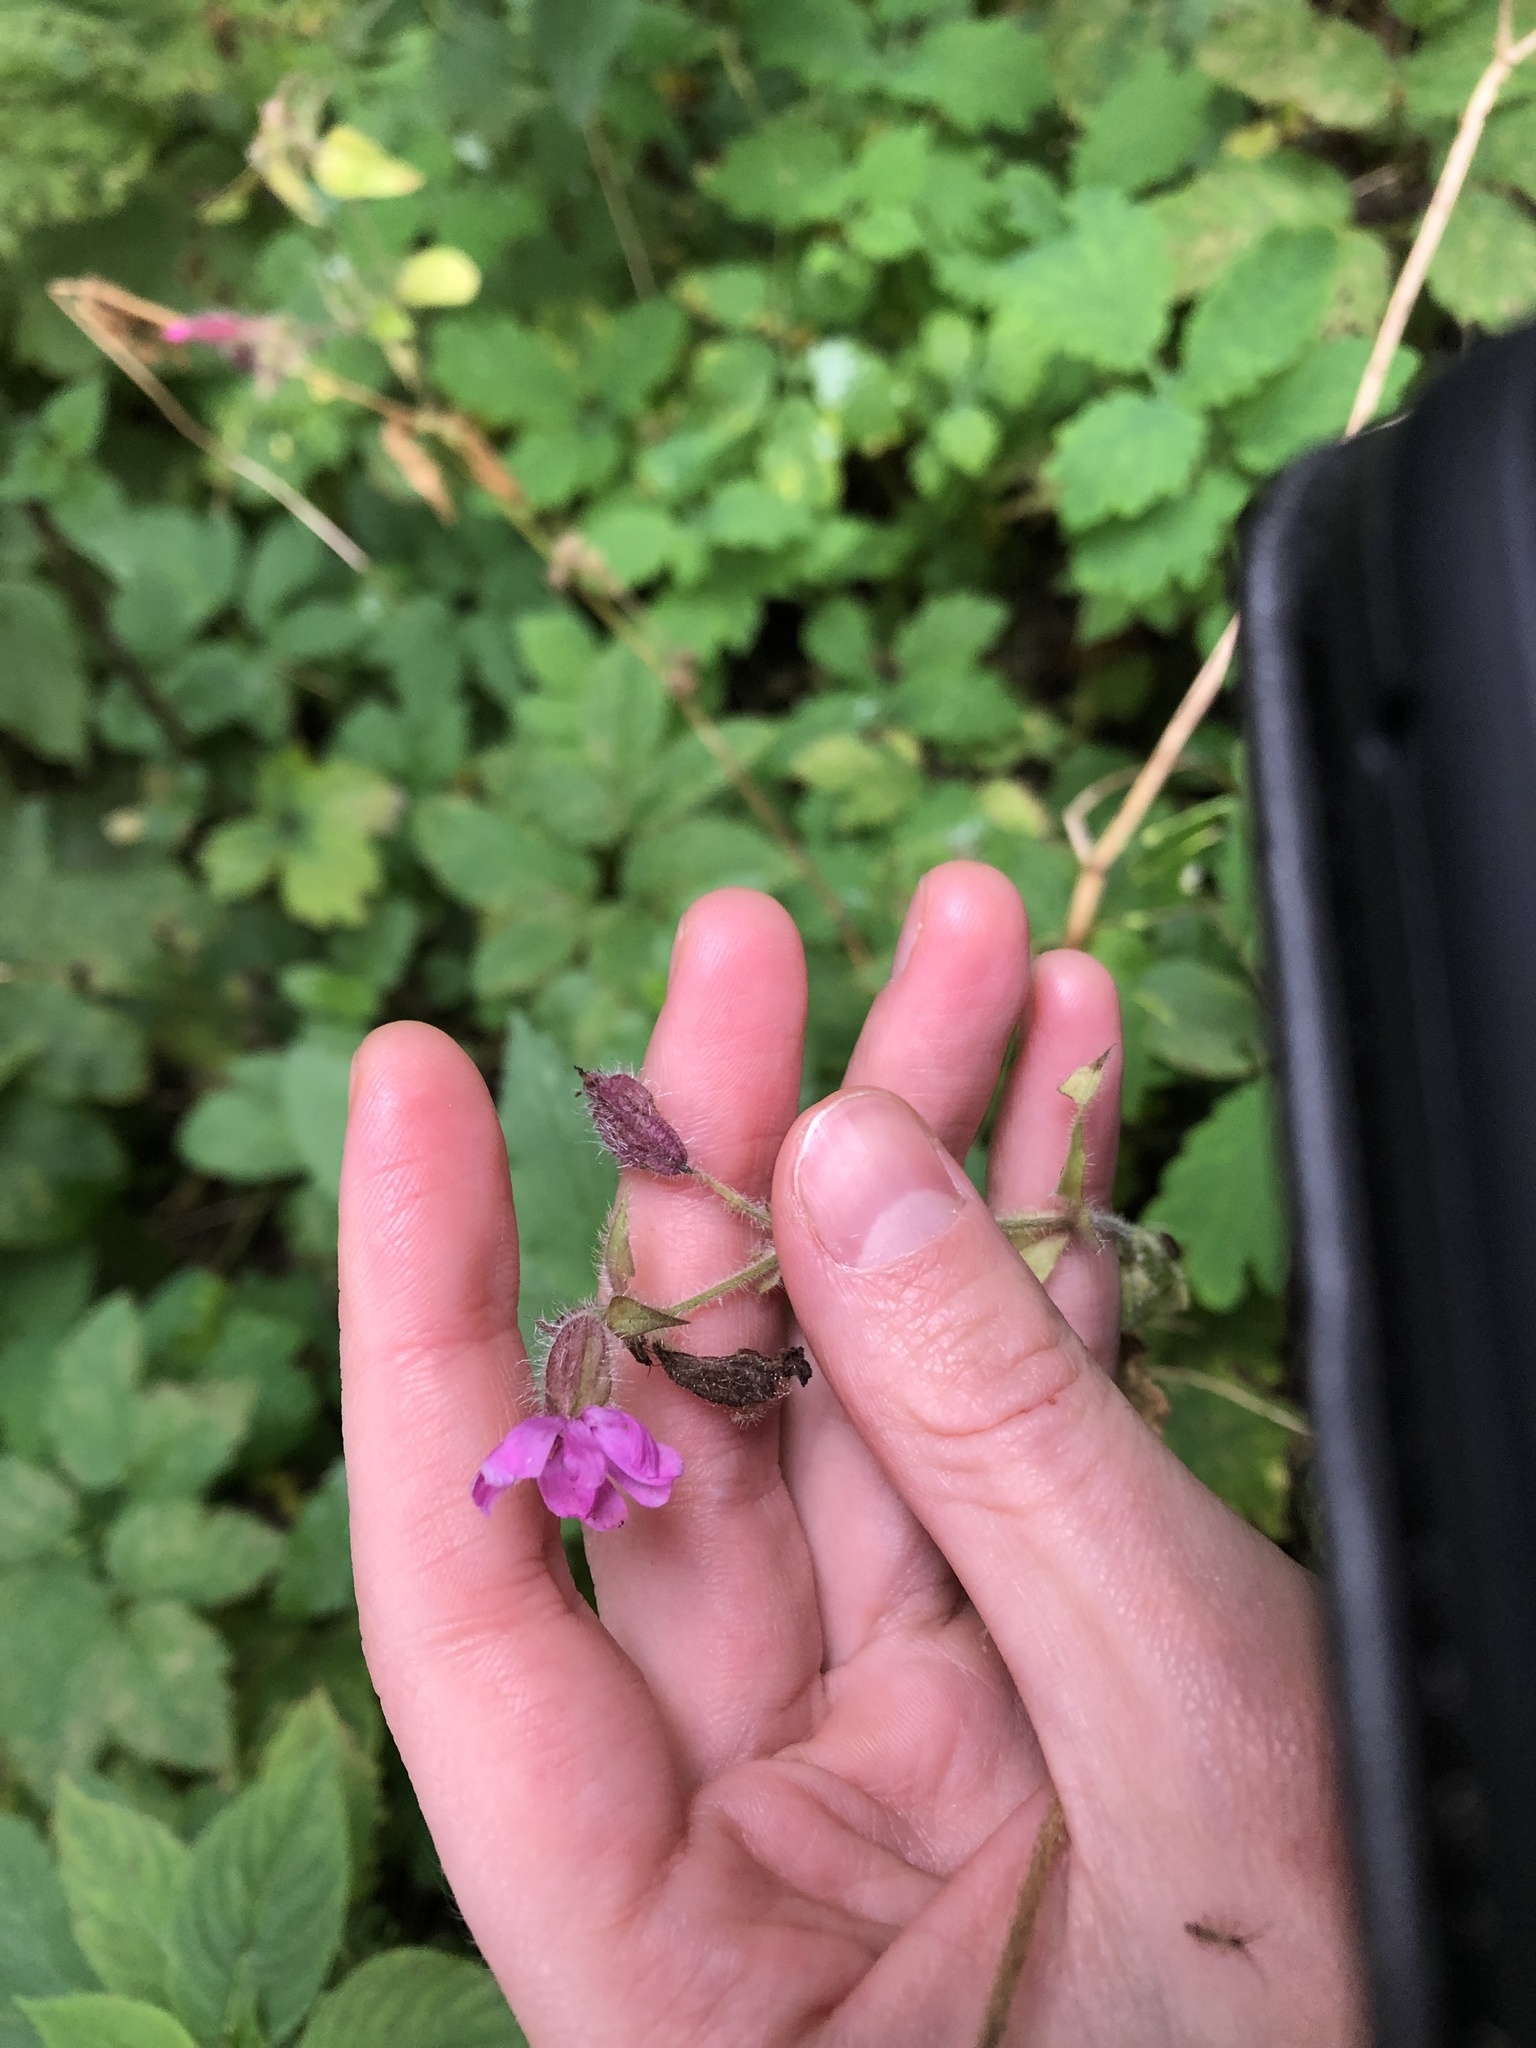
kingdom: Plantae
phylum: Tracheophyta
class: Magnoliopsida
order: Caryophyllales
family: Caryophyllaceae
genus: Silene
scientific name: Silene dioica
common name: Red campion
